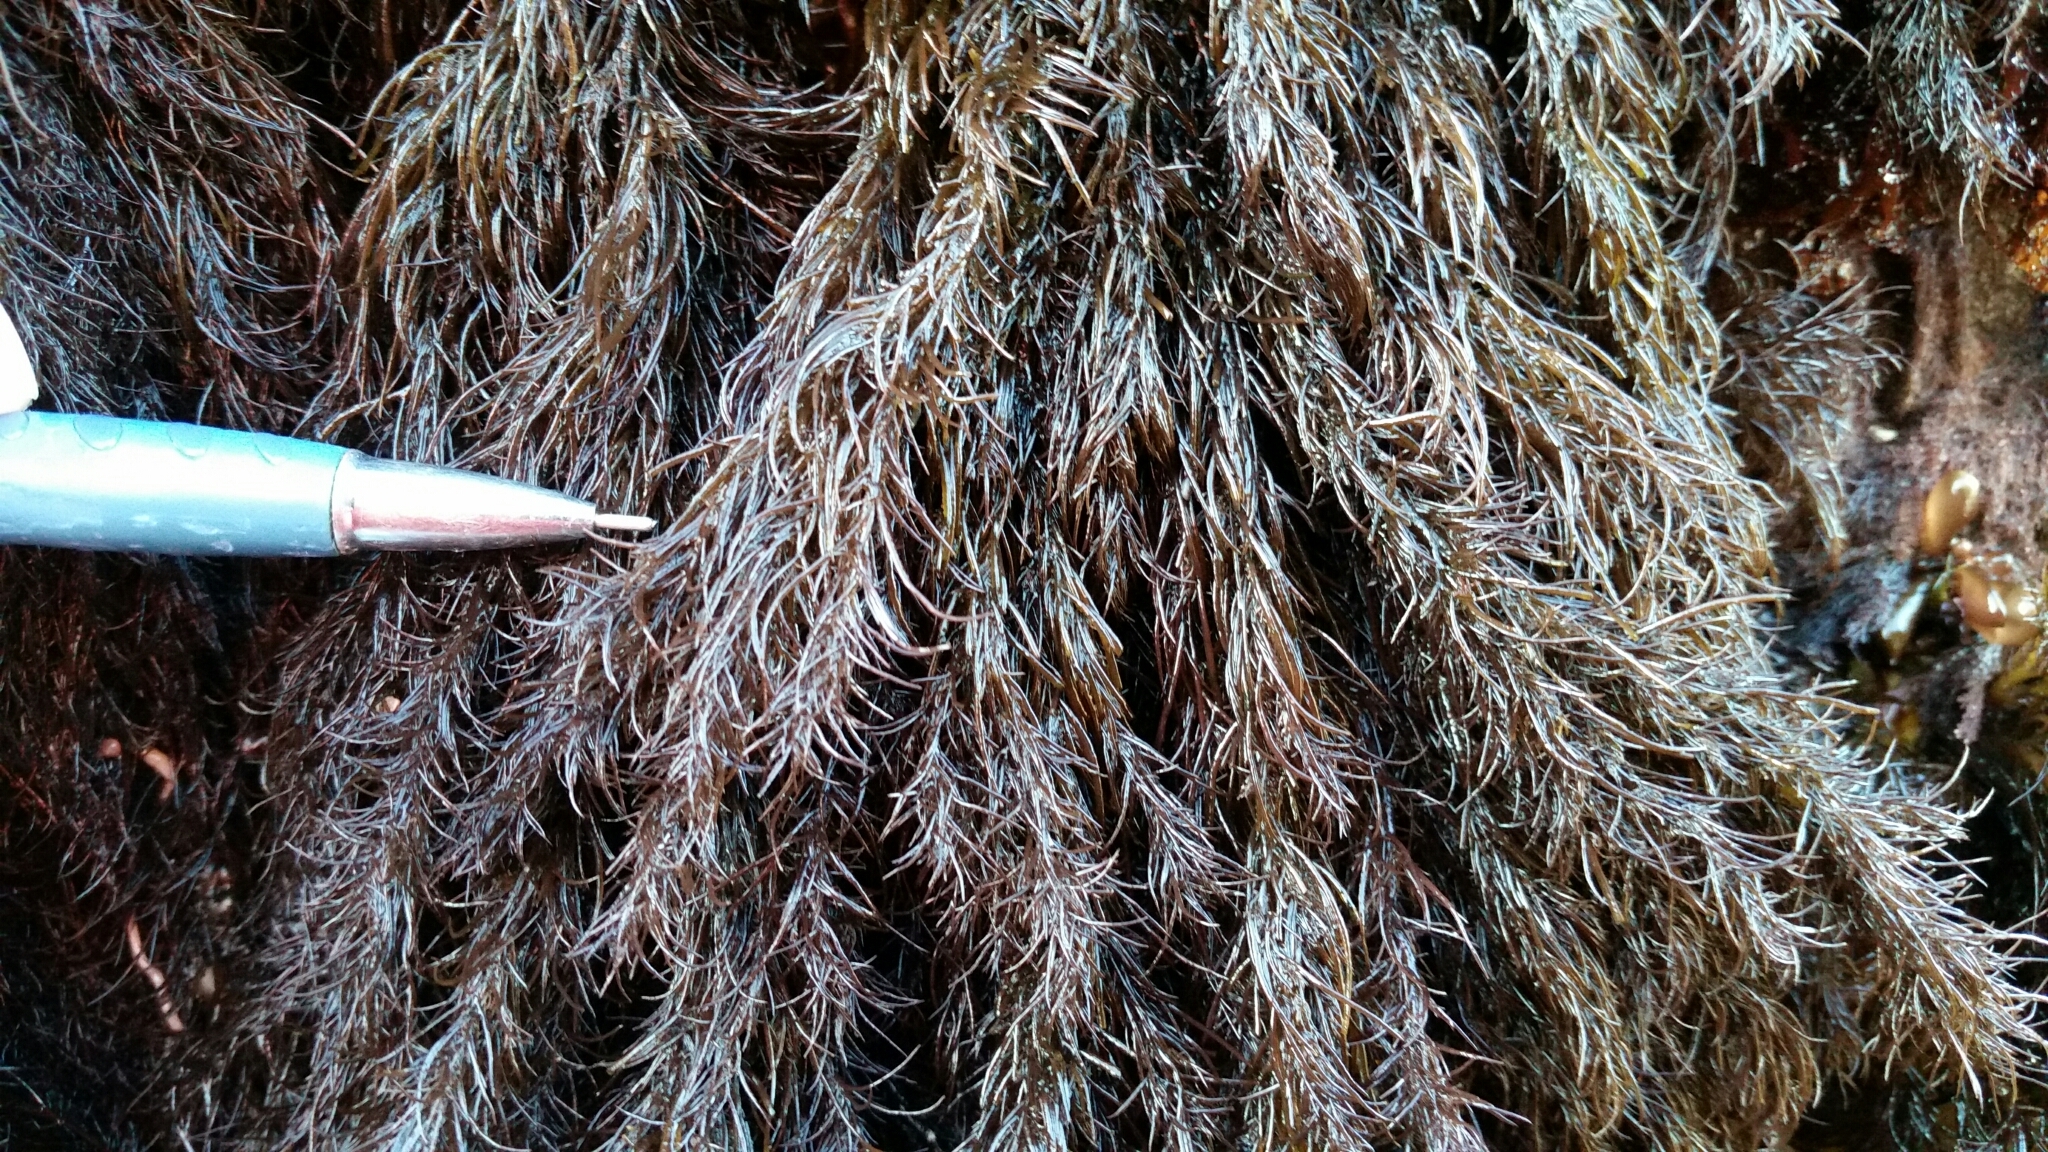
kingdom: Plantae
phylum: Rhodophyta
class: Florideophyceae
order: Ceramiales
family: Rhodomelaceae
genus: Odonthalia
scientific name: Odonthalia floccosa
